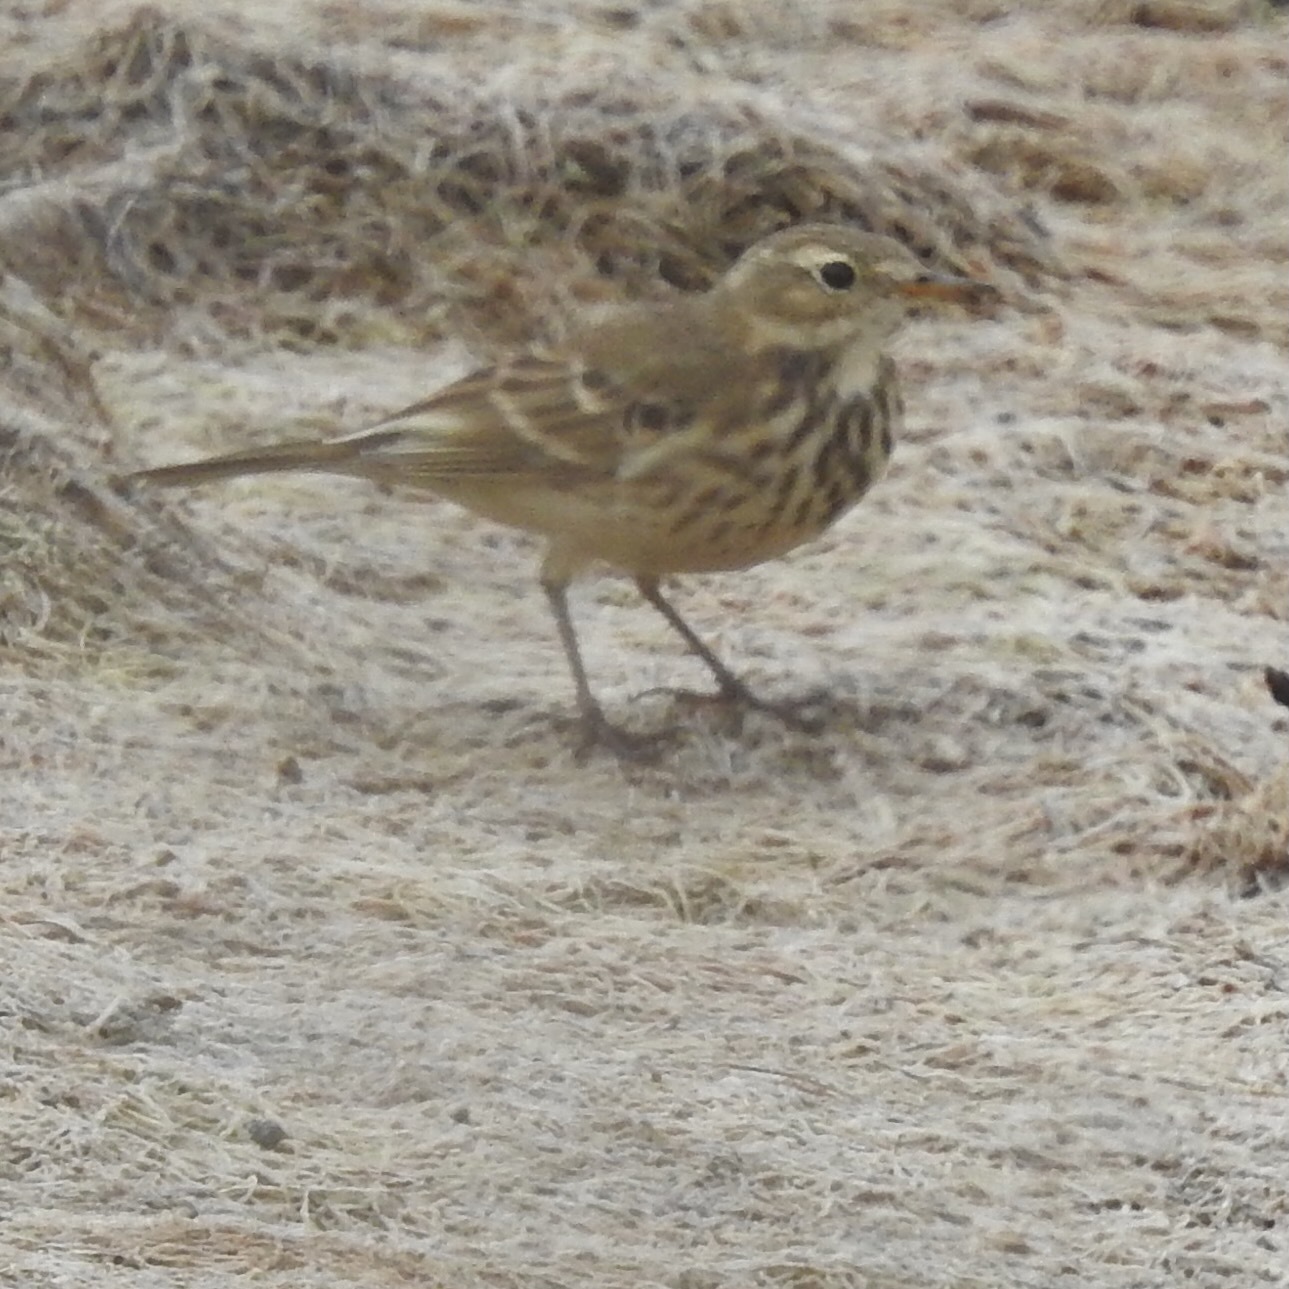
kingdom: Animalia
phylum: Chordata
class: Aves
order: Passeriformes
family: Motacillidae
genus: Anthus
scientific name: Anthus rubescens
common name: Buff-bellied pipit
